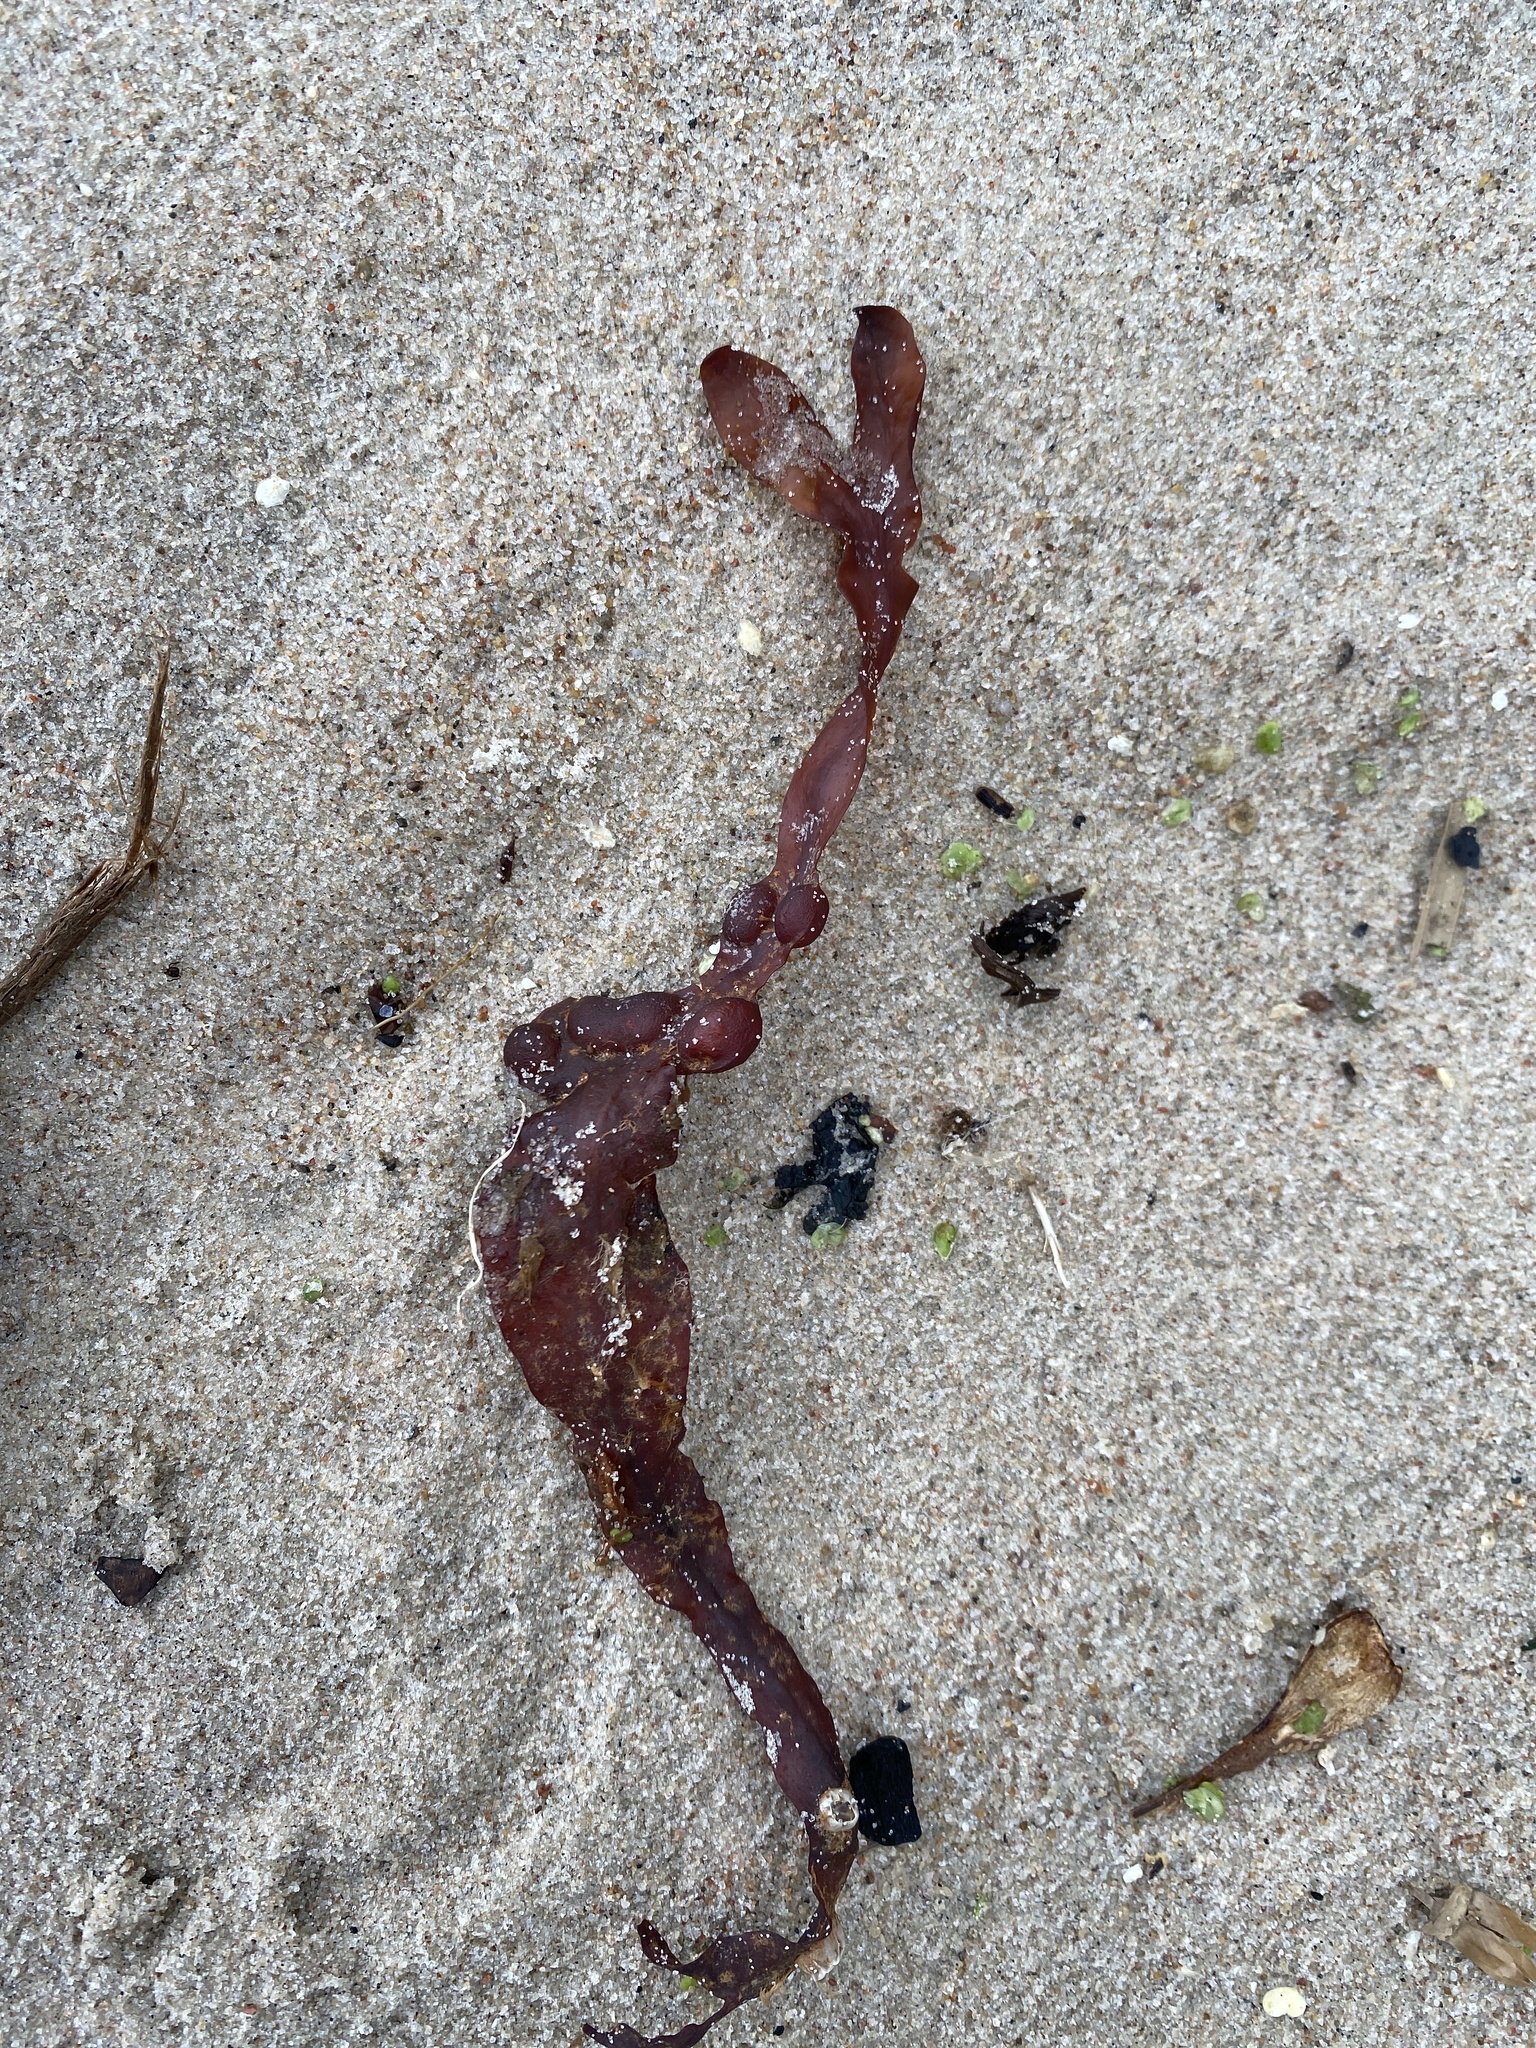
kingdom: Chromista
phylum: Ochrophyta
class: Phaeophyceae
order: Fucales
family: Fucaceae
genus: Fucus
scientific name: Fucus vesiculosus
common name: Bladder wrack
